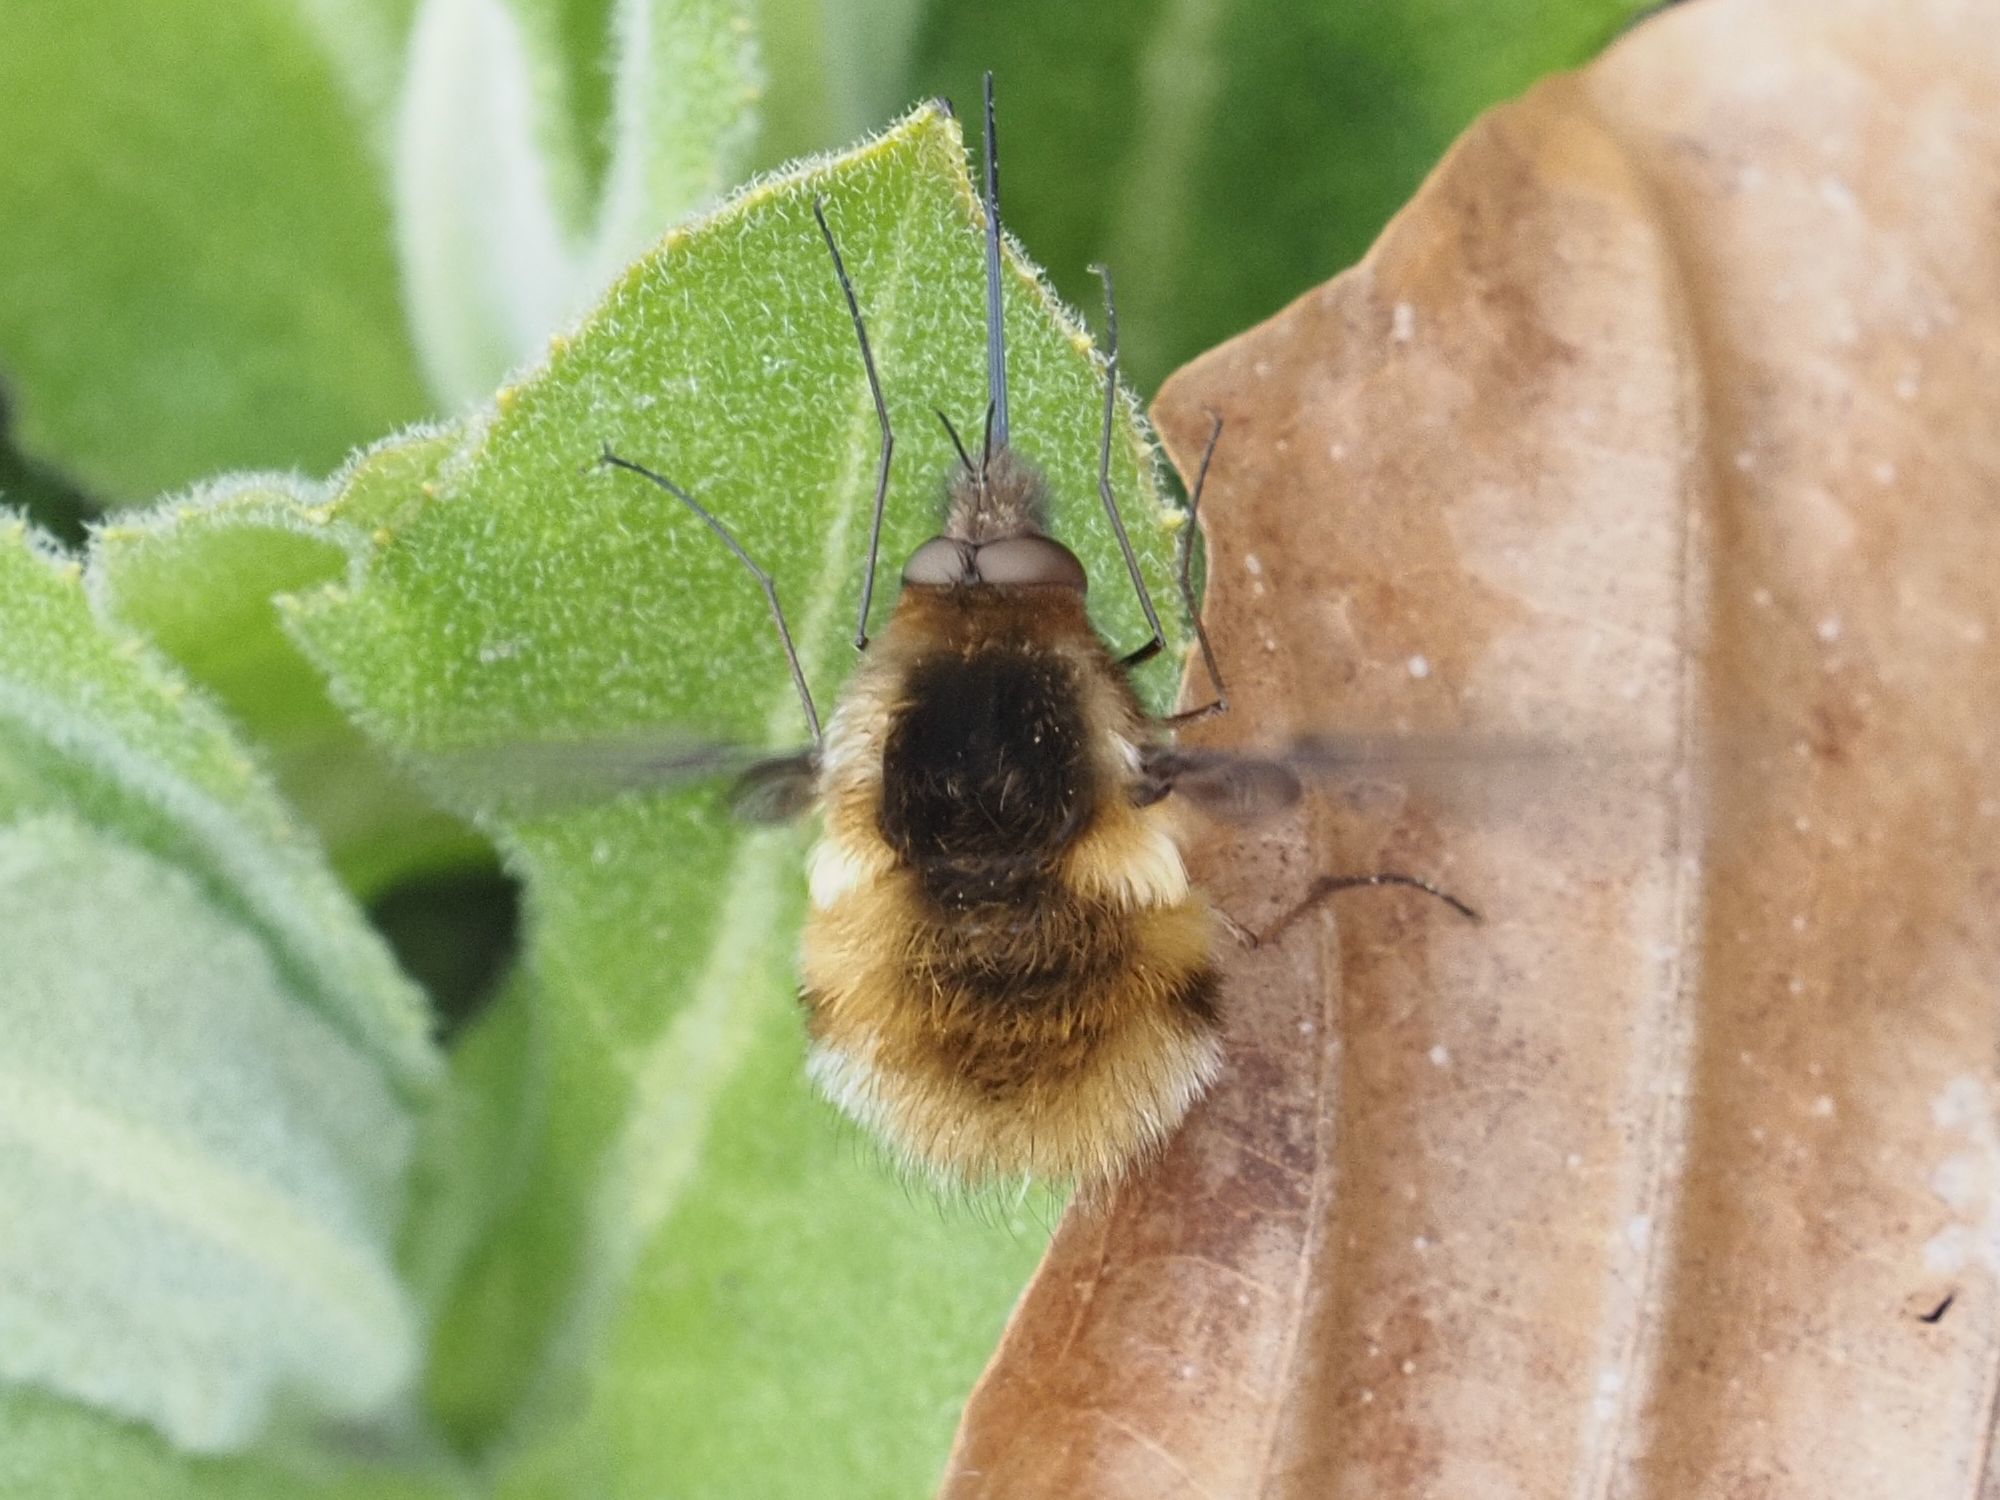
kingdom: Animalia
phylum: Arthropoda
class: Insecta
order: Diptera
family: Bombyliidae
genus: Bombylius
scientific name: Bombylius major
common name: Bee fly
